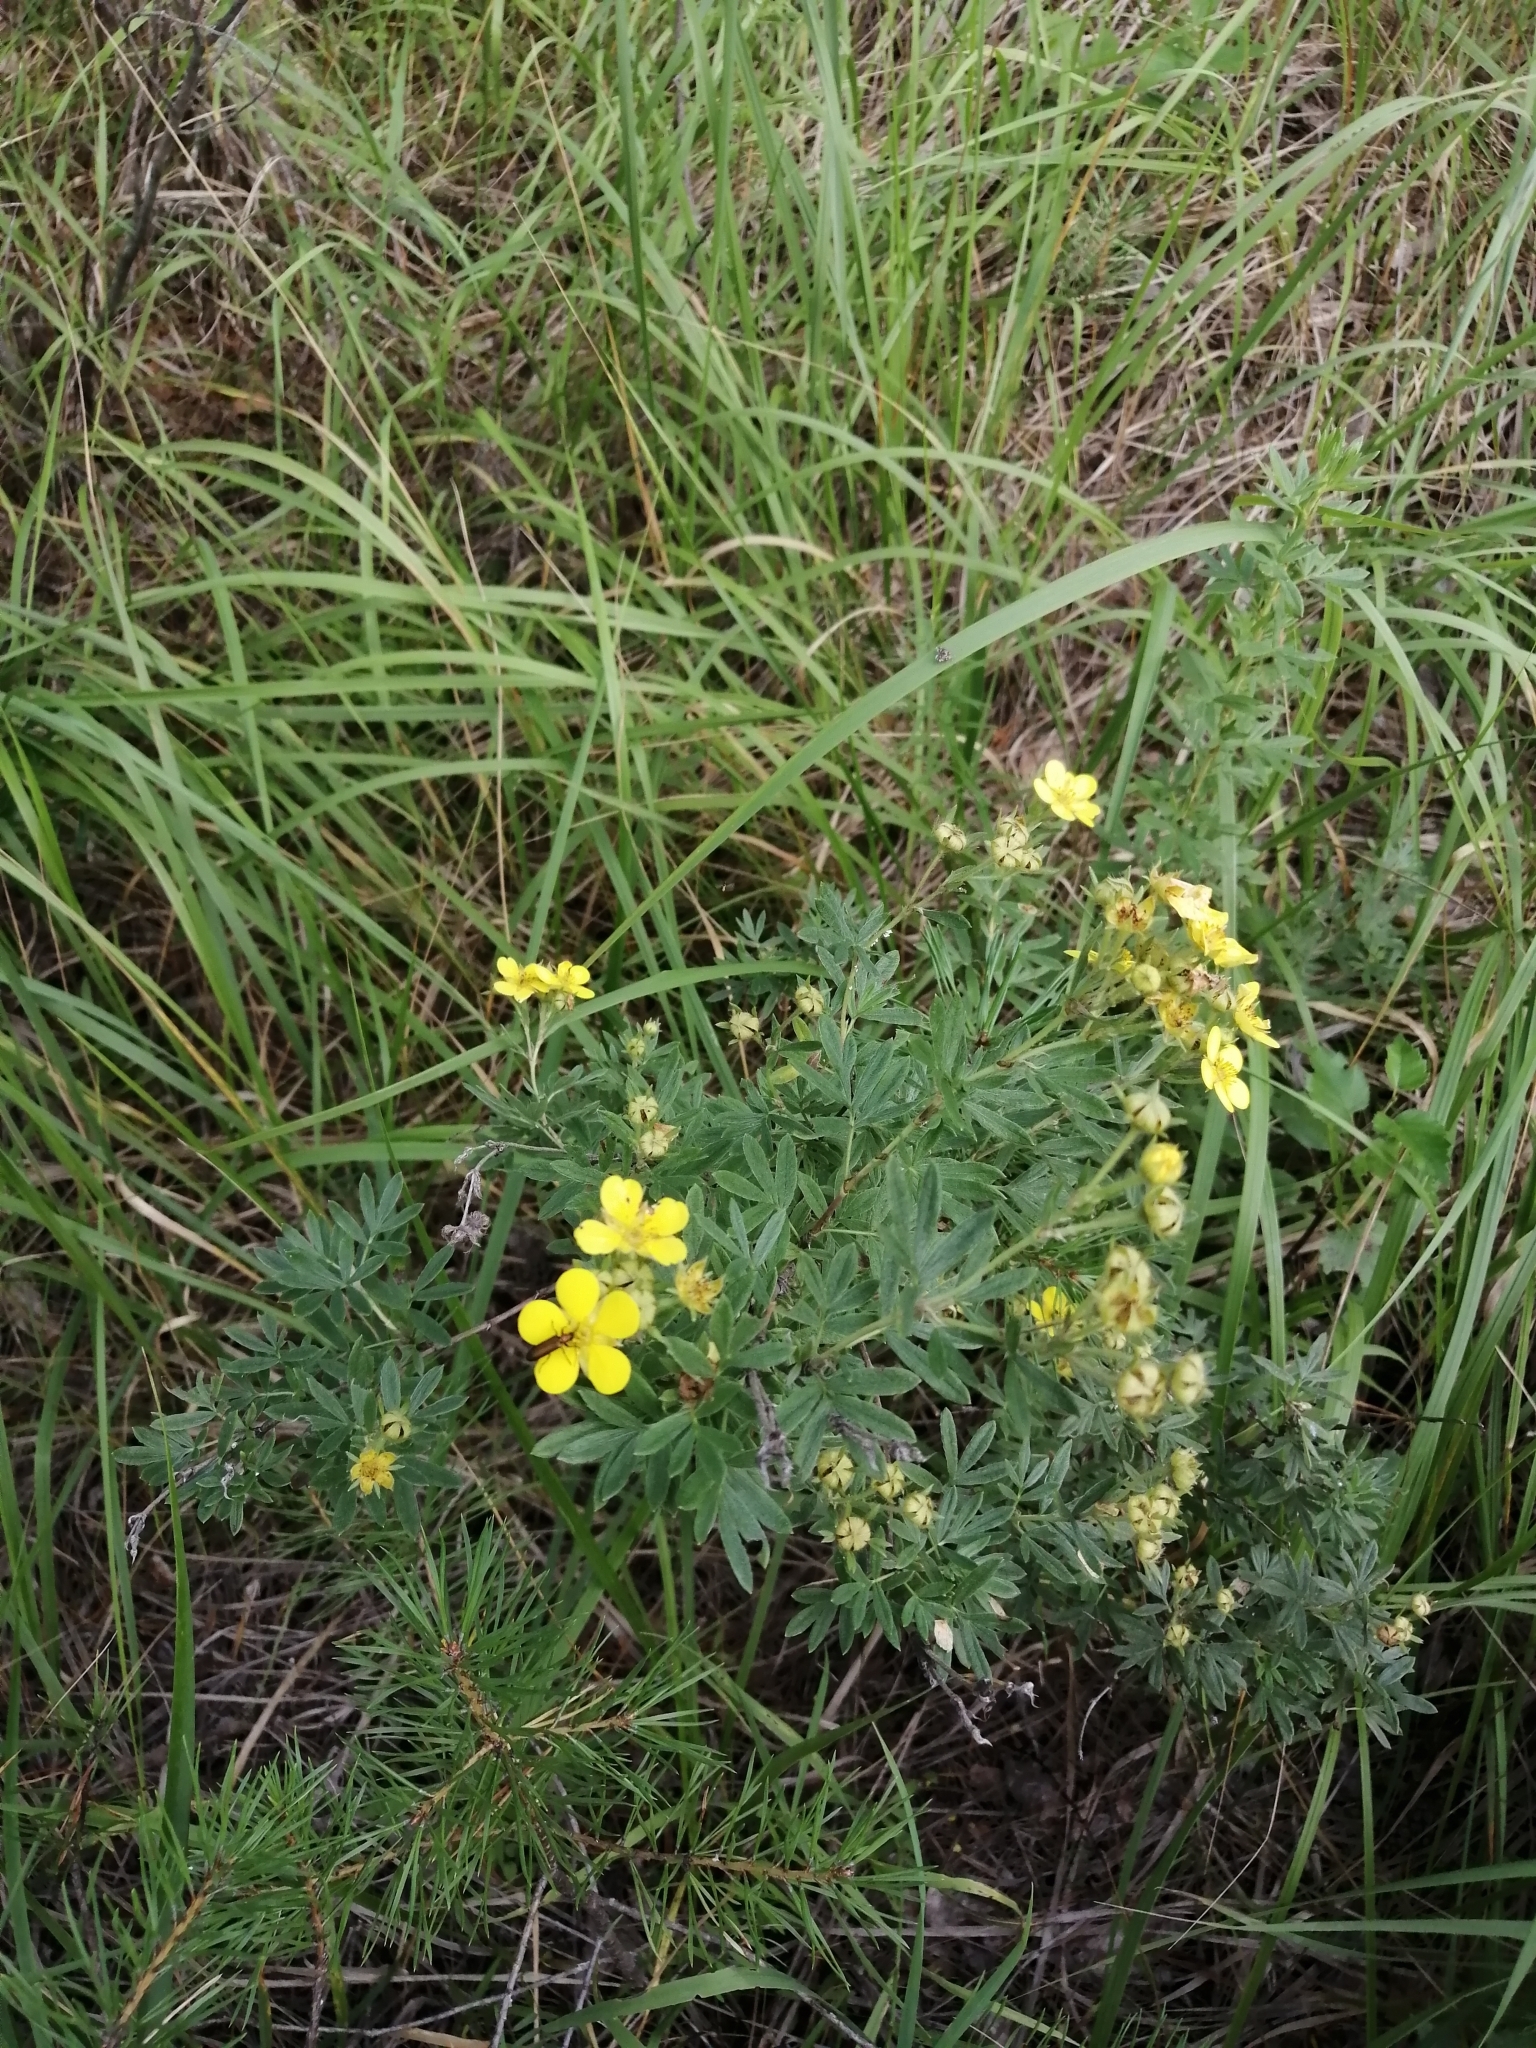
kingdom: Plantae
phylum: Tracheophyta
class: Magnoliopsida
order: Rosales
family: Rosaceae
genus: Dasiphora
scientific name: Dasiphora fruticosa
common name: Shrubby cinquefoil
